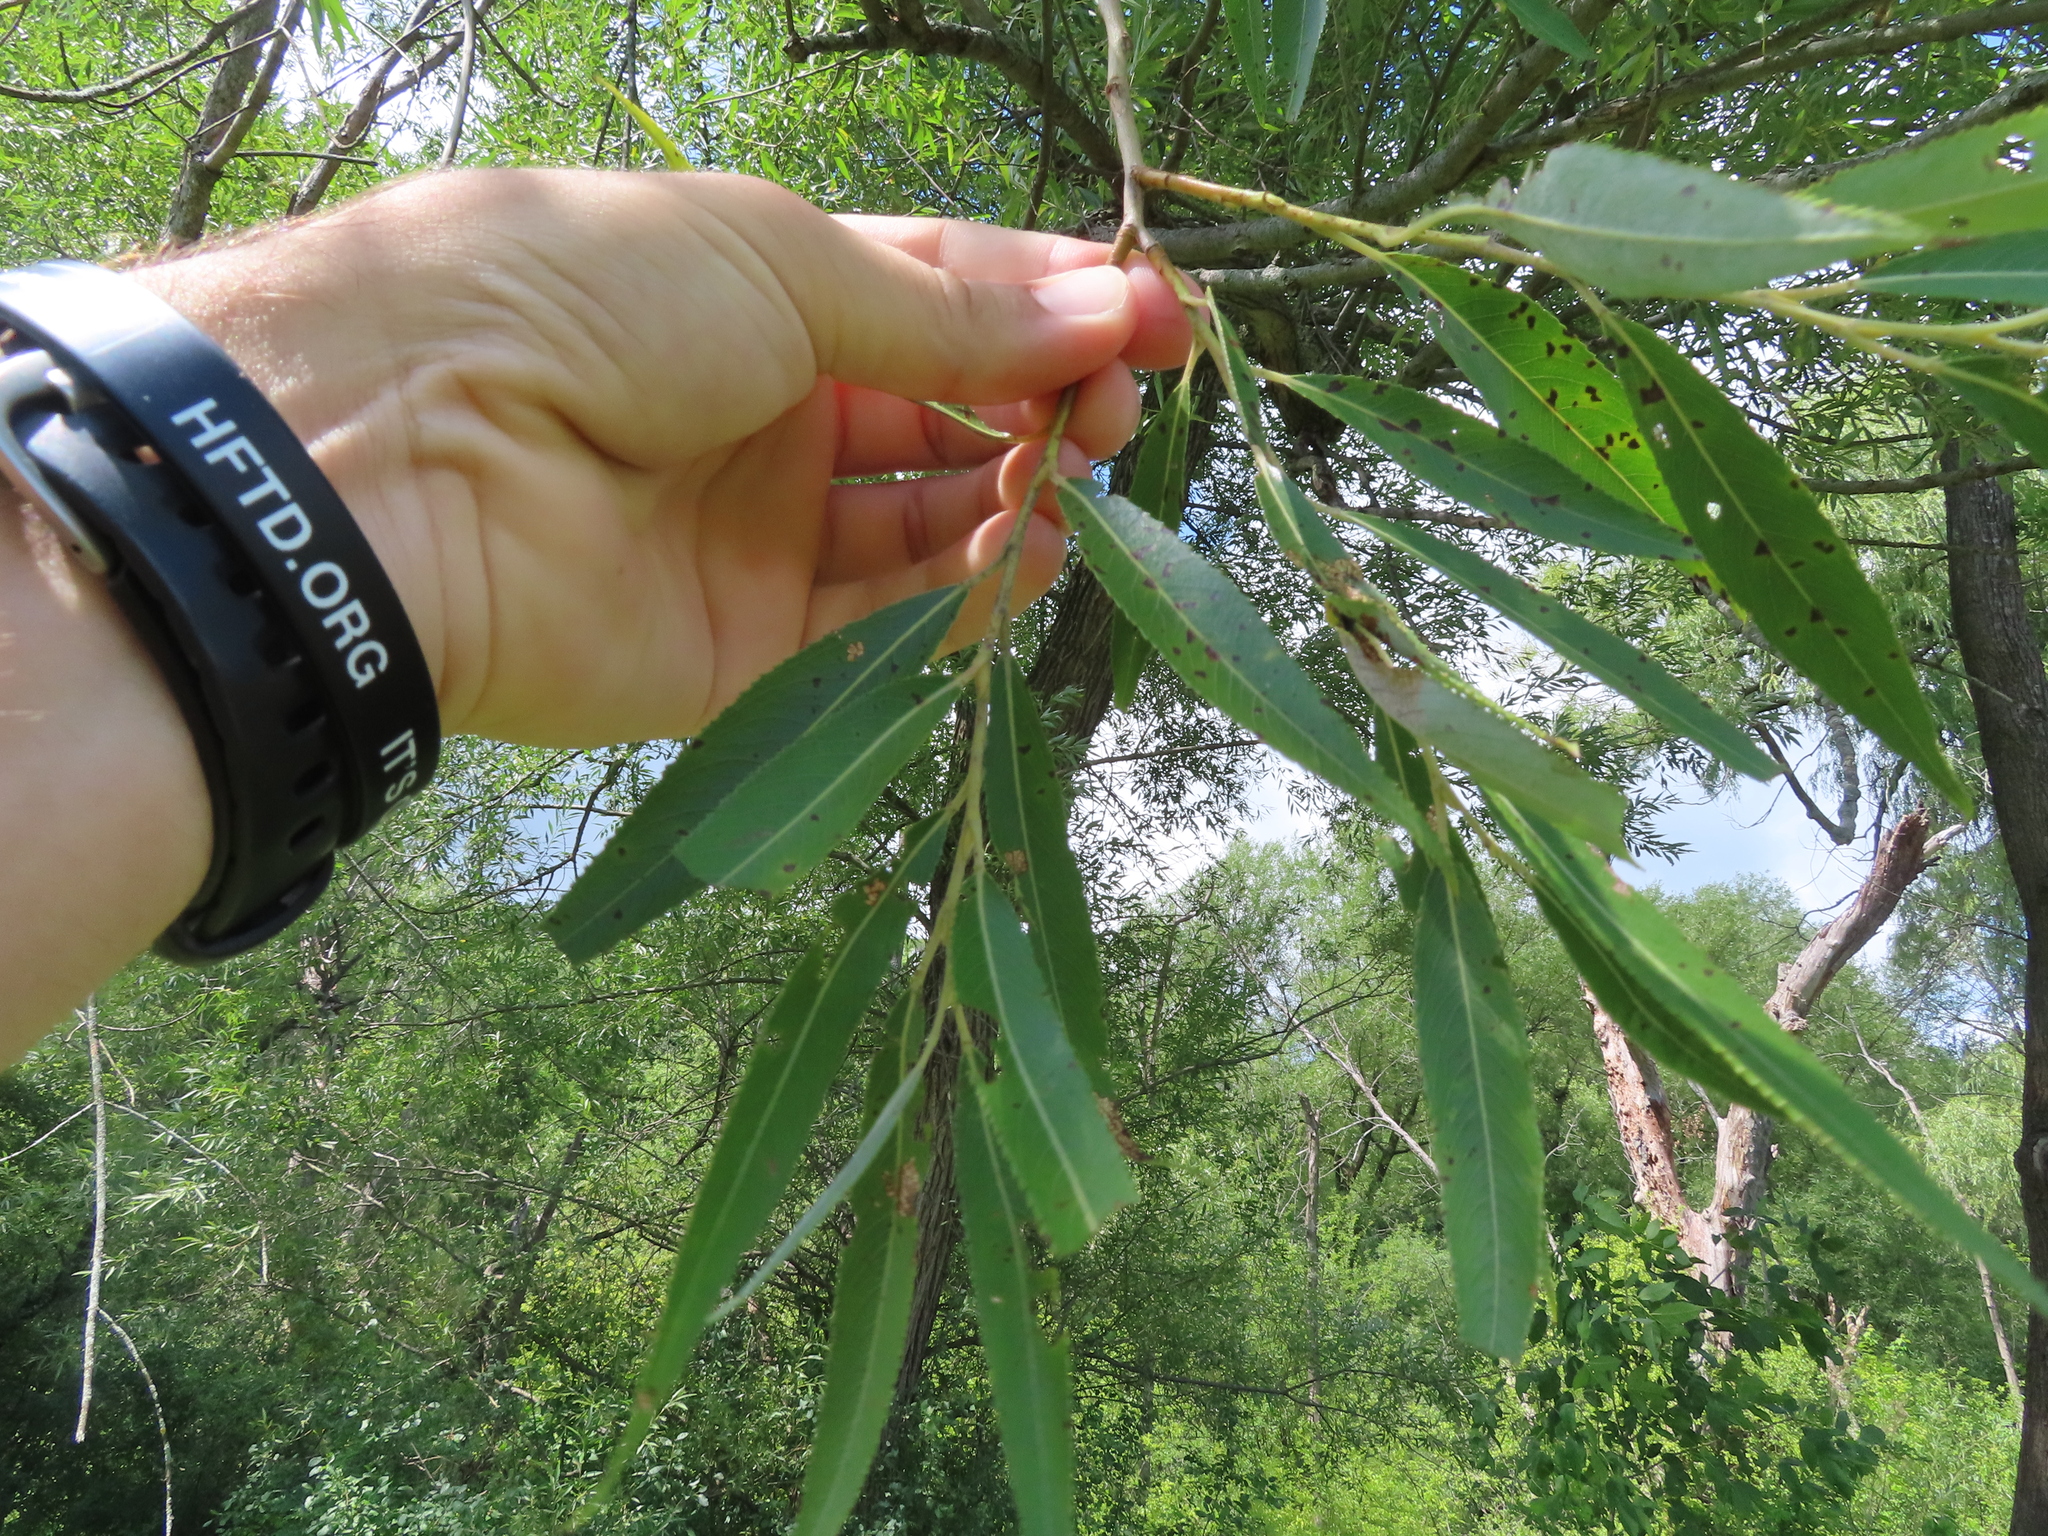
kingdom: Plantae
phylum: Tracheophyta
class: Magnoliopsida
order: Malpighiales
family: Salicaceae
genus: Salix
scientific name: Salix
